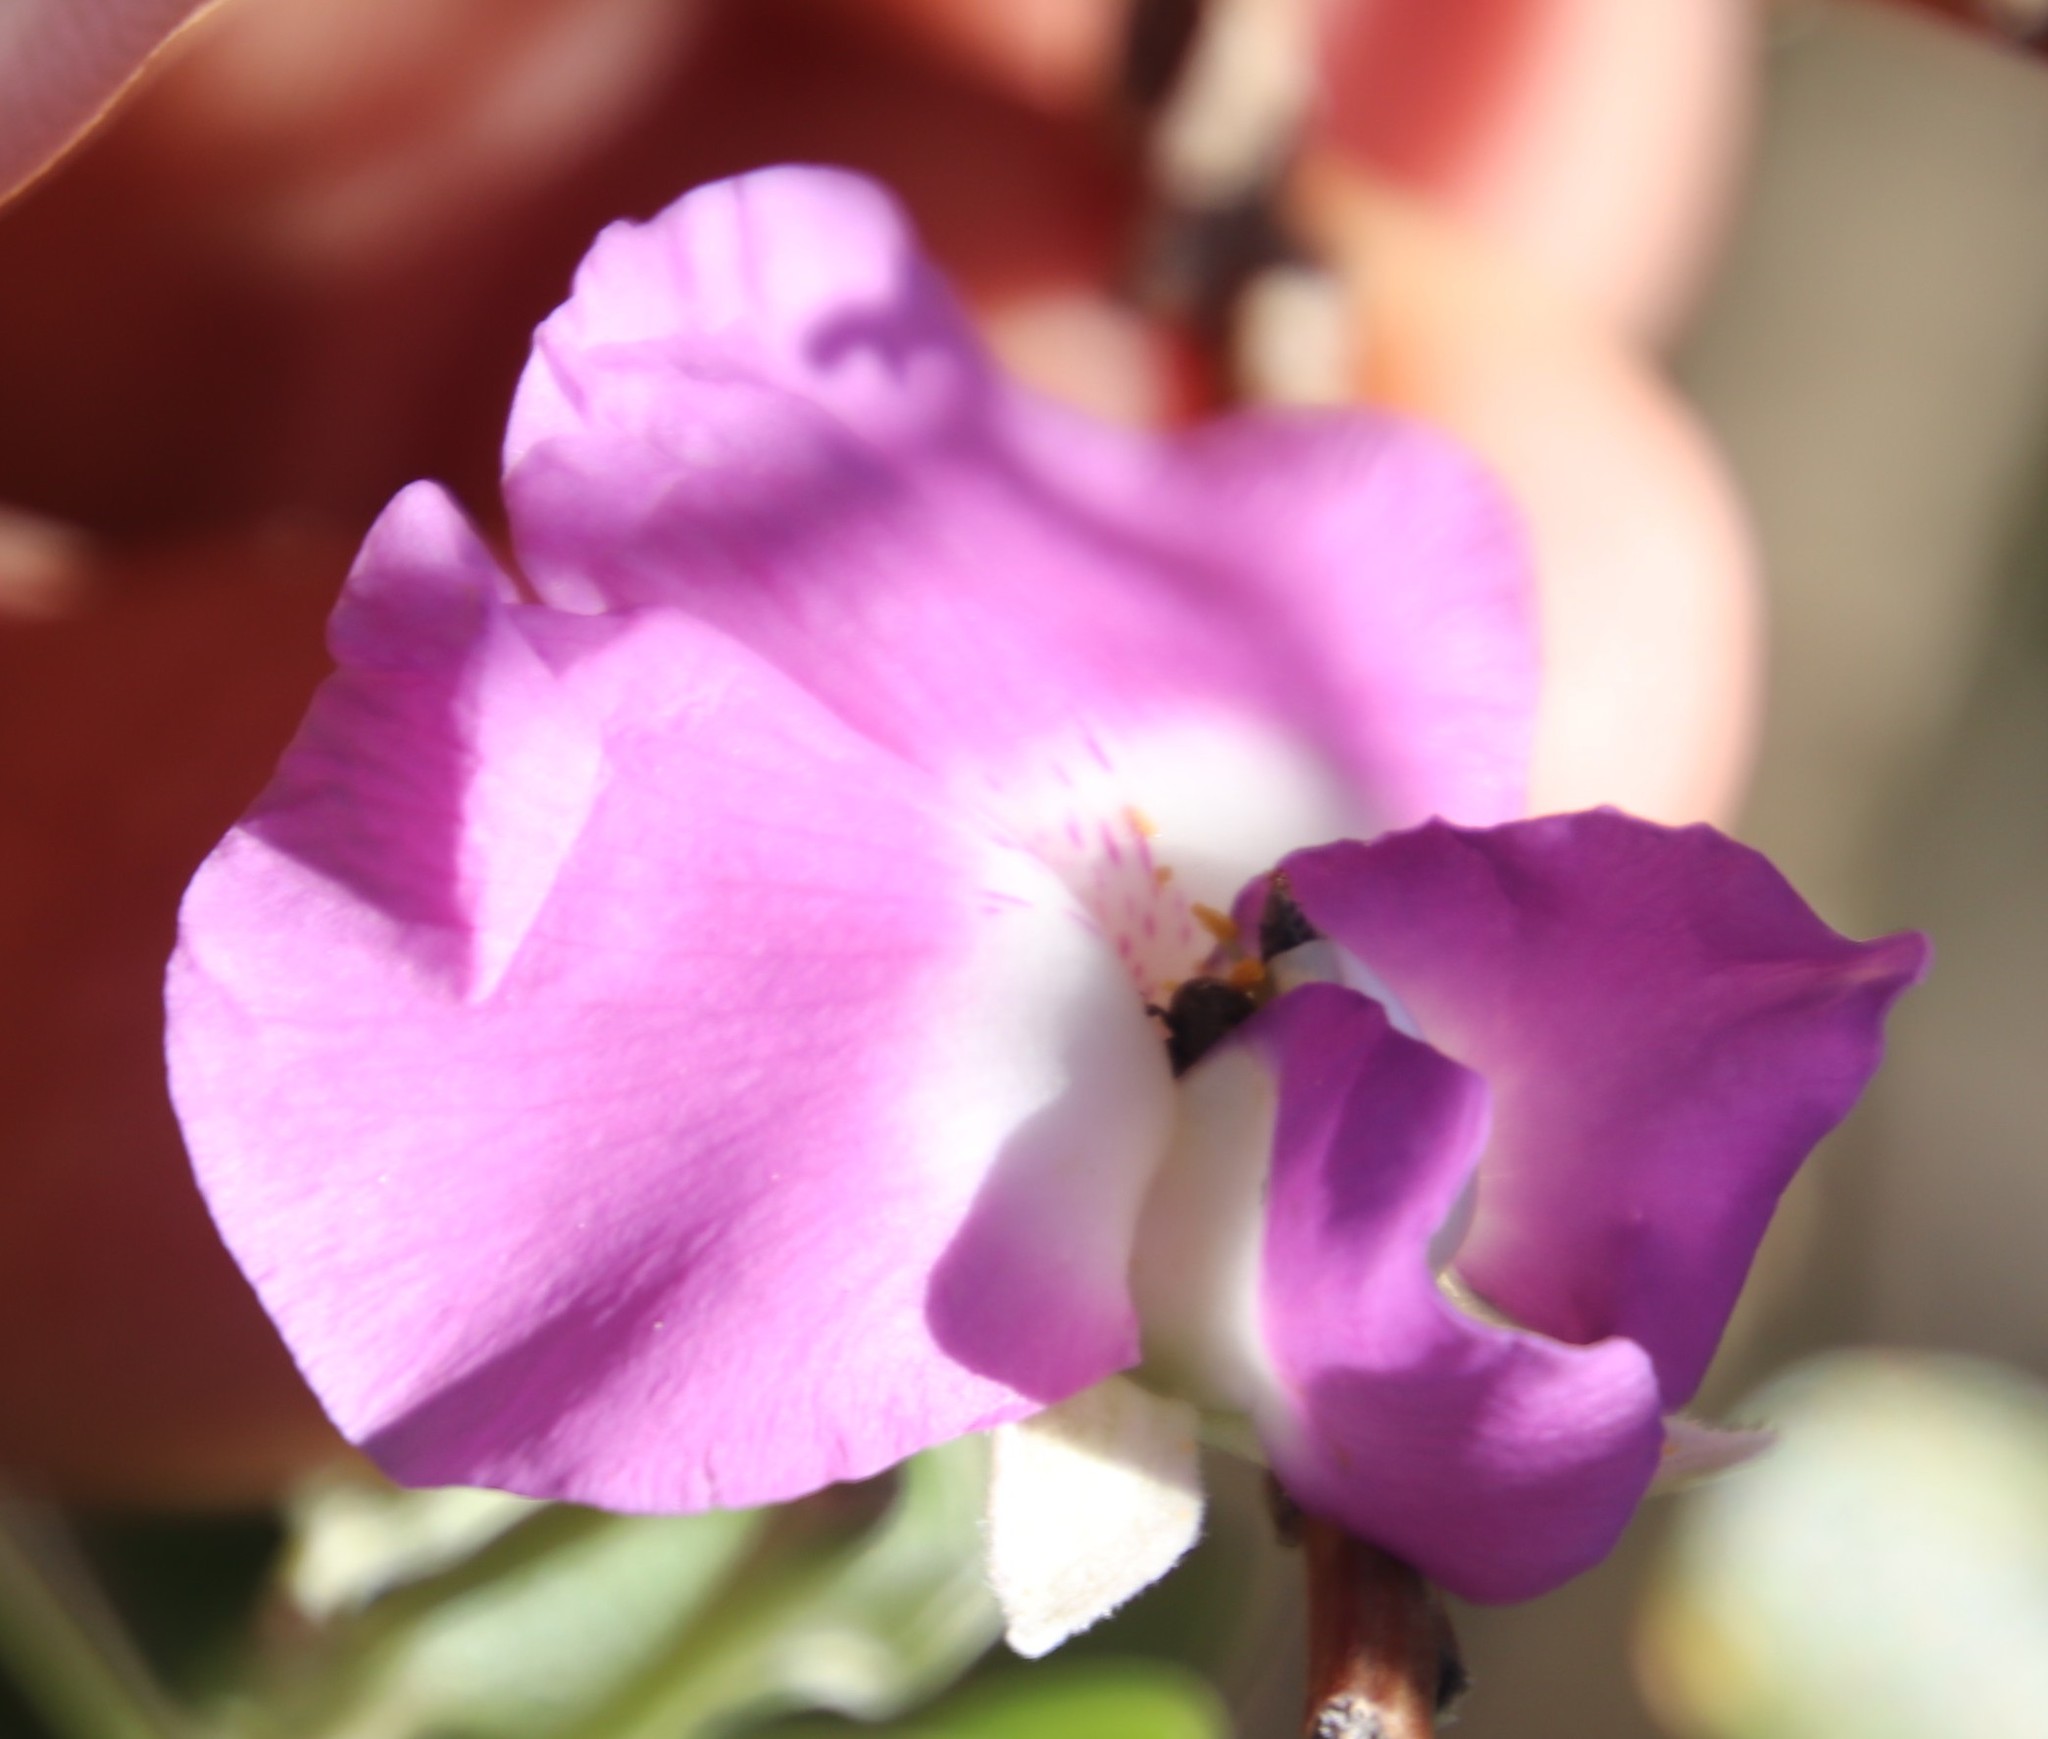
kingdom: Plantae
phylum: Tracheophyta
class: Magnoliopsida
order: Fabales
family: Fabaceae
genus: Podalyria
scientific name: Podalyria calyptrata
